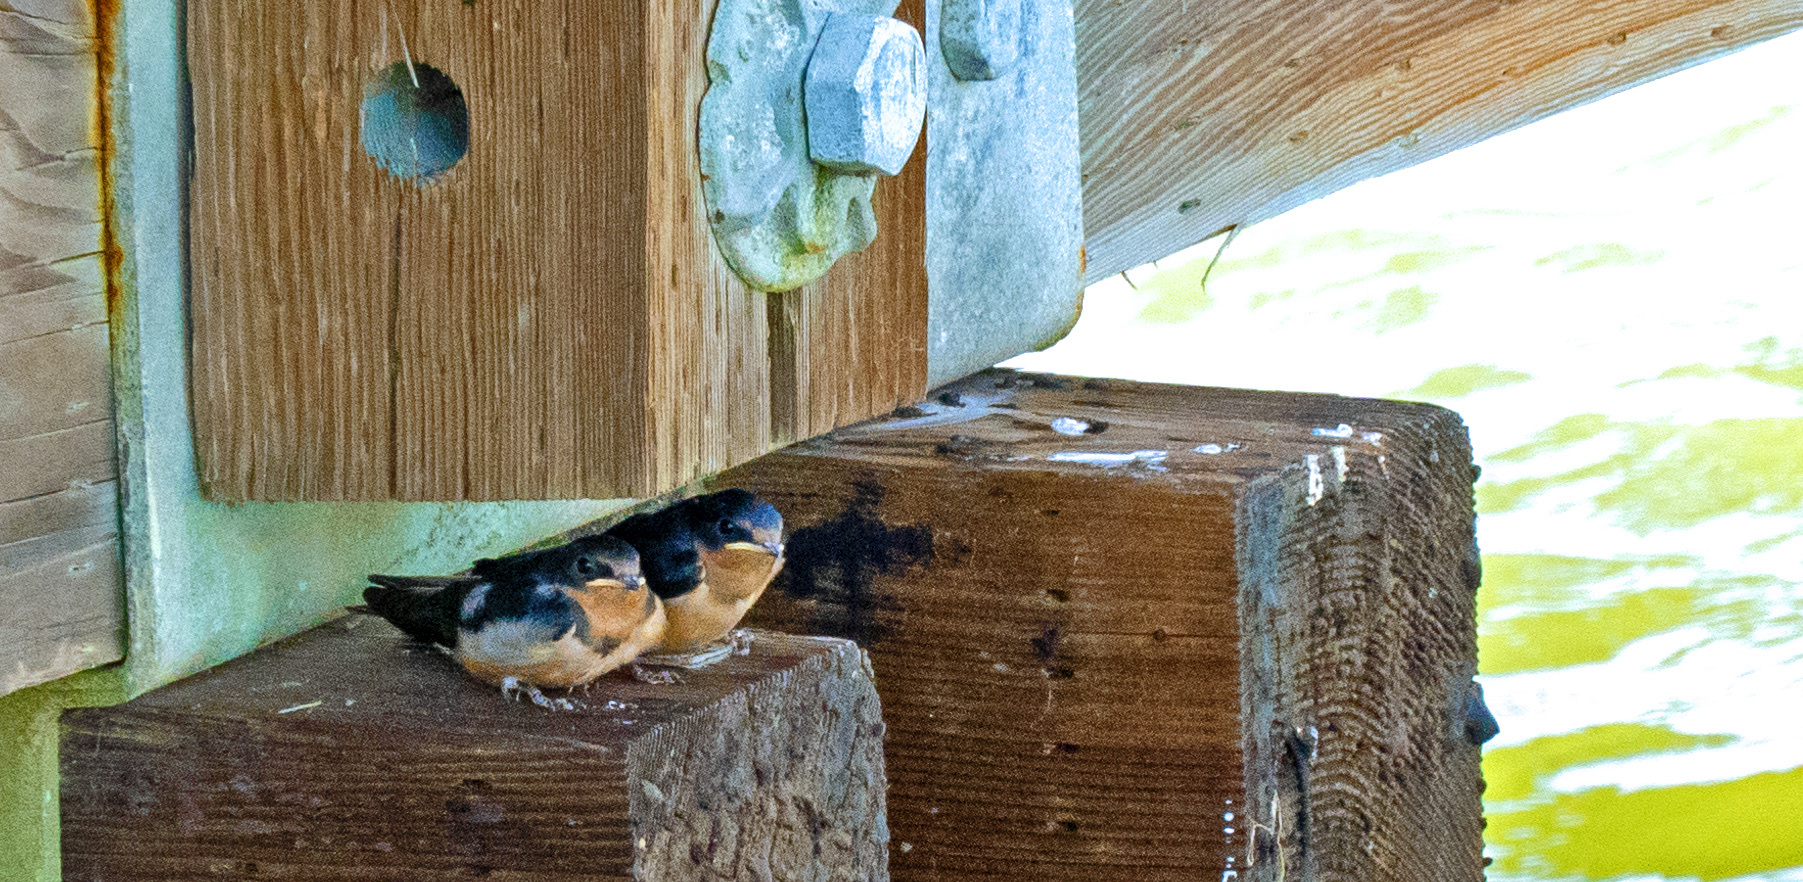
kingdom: Animalia
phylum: Chordata
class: Aves
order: Passeriformes
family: Hirundinidae
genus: Hirundo
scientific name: Hirundo rustica
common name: Barn swallow
